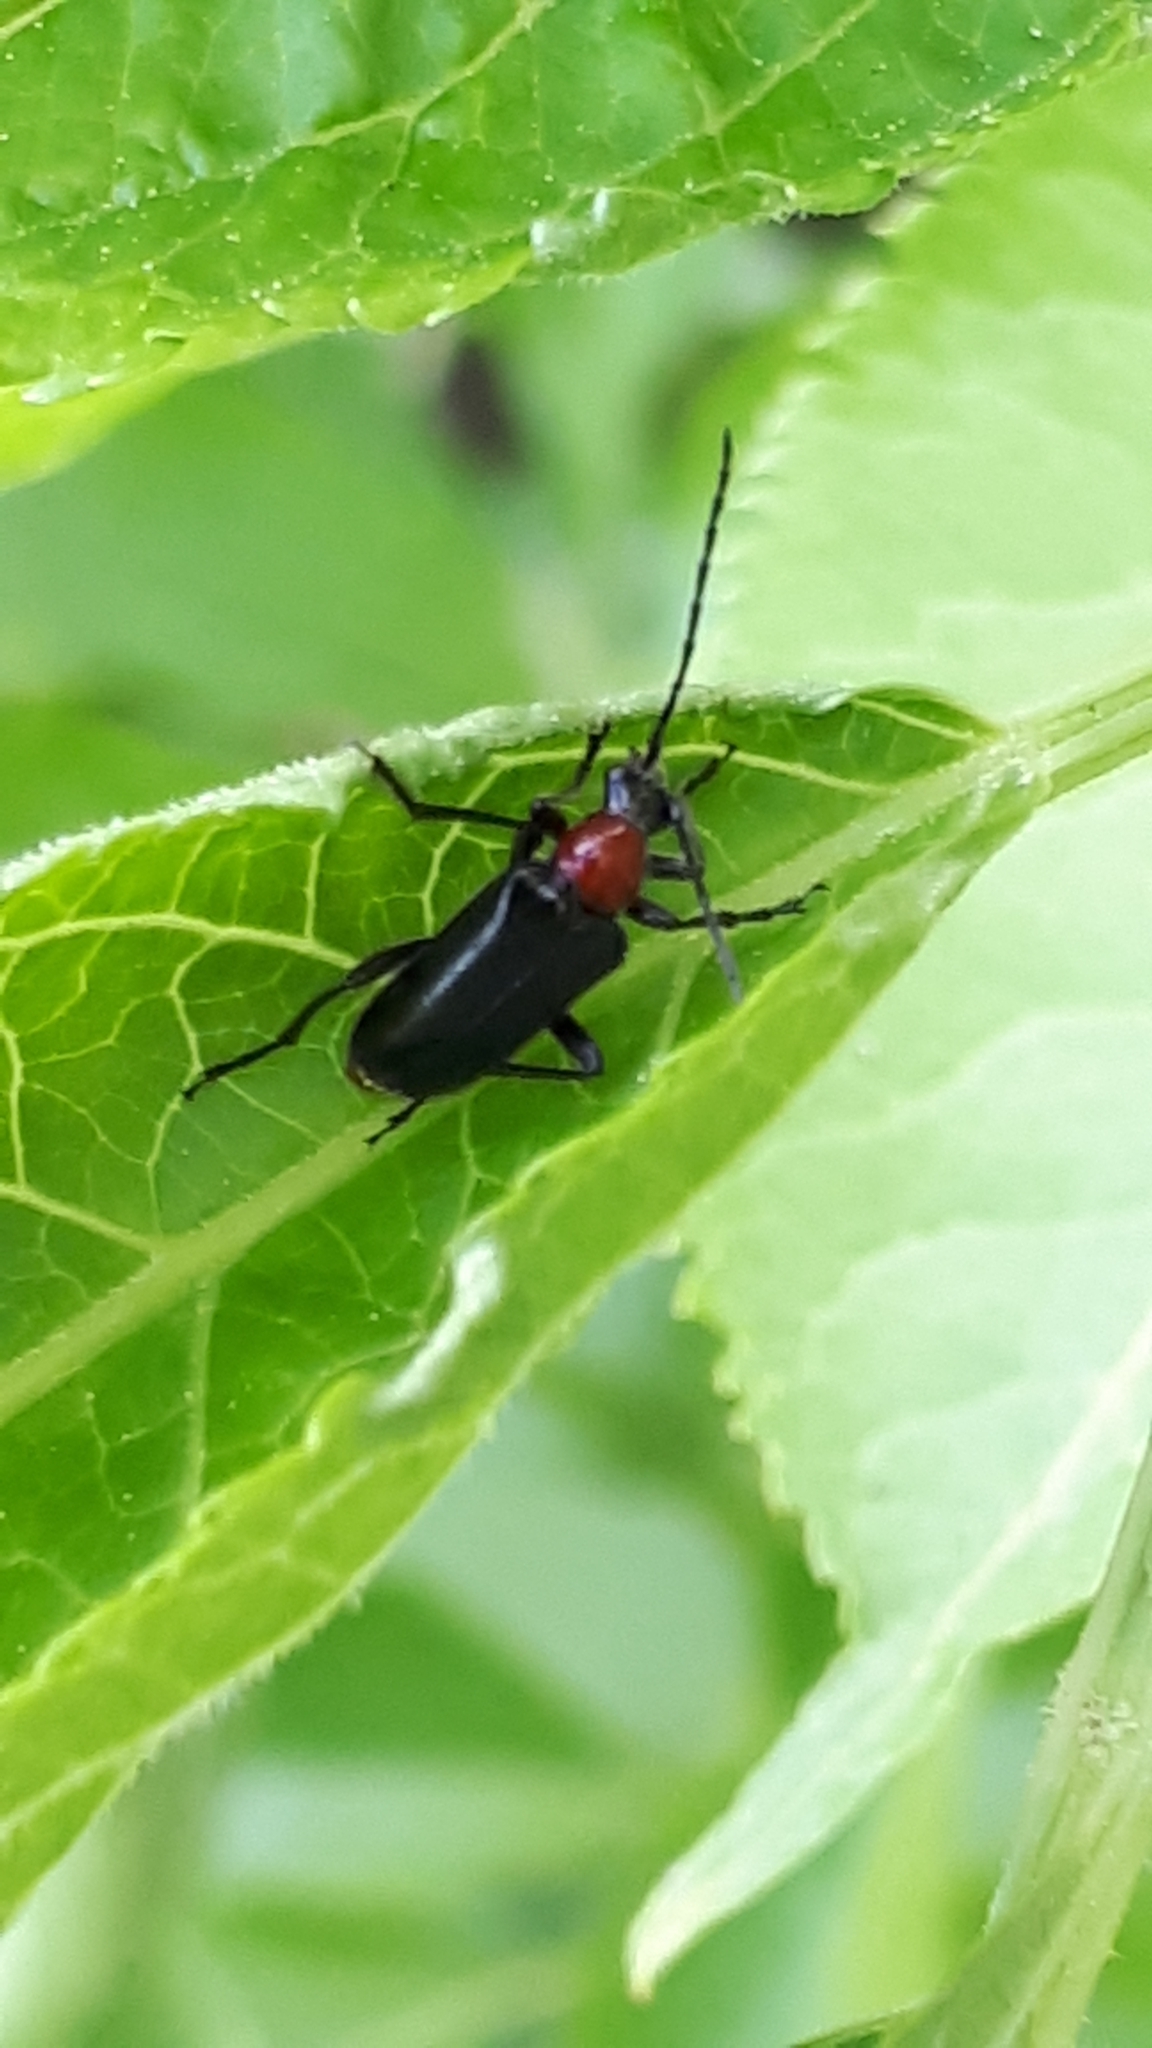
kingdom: Animalia
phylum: Arthropoda
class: Insecta
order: Coleoptera
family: Cerambycidae
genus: Dinoptera
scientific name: Dinoptera collaris
